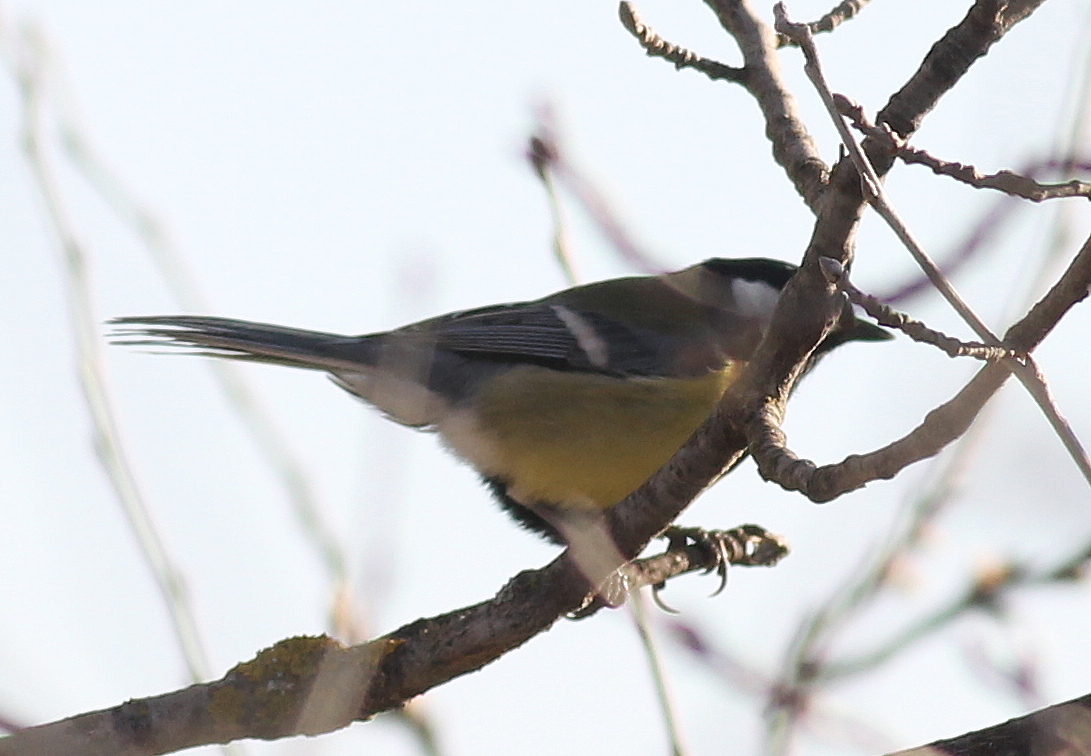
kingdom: Animalia
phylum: Chordata
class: Aves
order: Passeriformes
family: Paridae
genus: Parus
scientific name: Parus major
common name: Great tit
